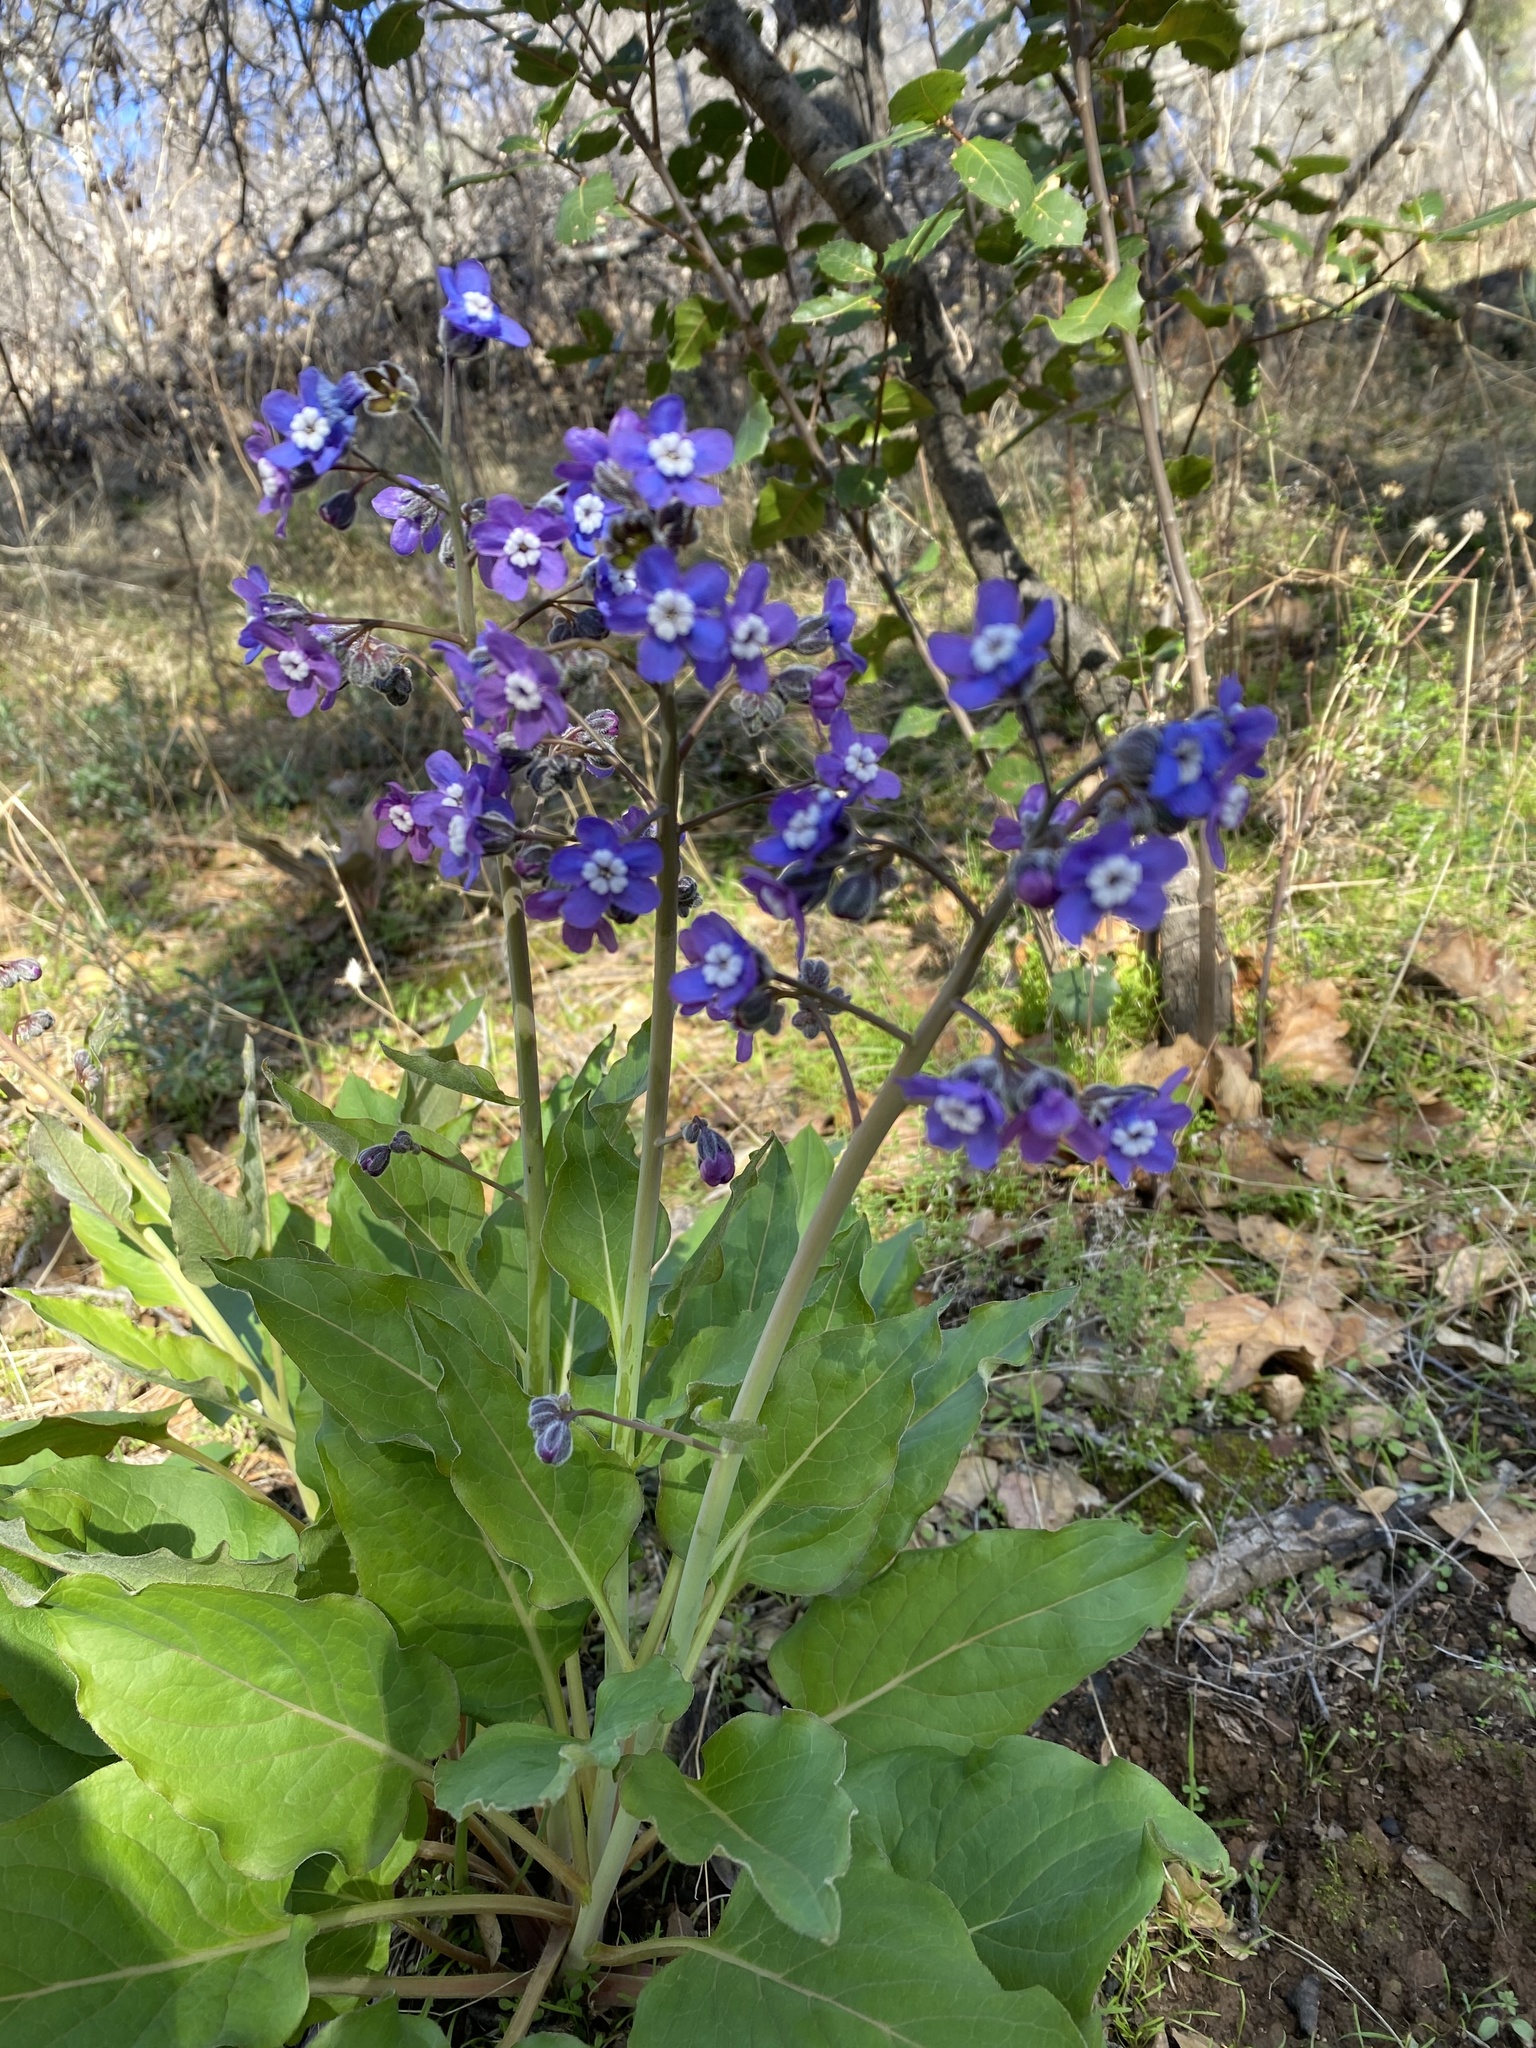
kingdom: Plantae
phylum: Tracheophyta
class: Magnoliopsida
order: Boraginales
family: Boraginaceae
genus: Adelinia
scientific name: Adelinia grande
